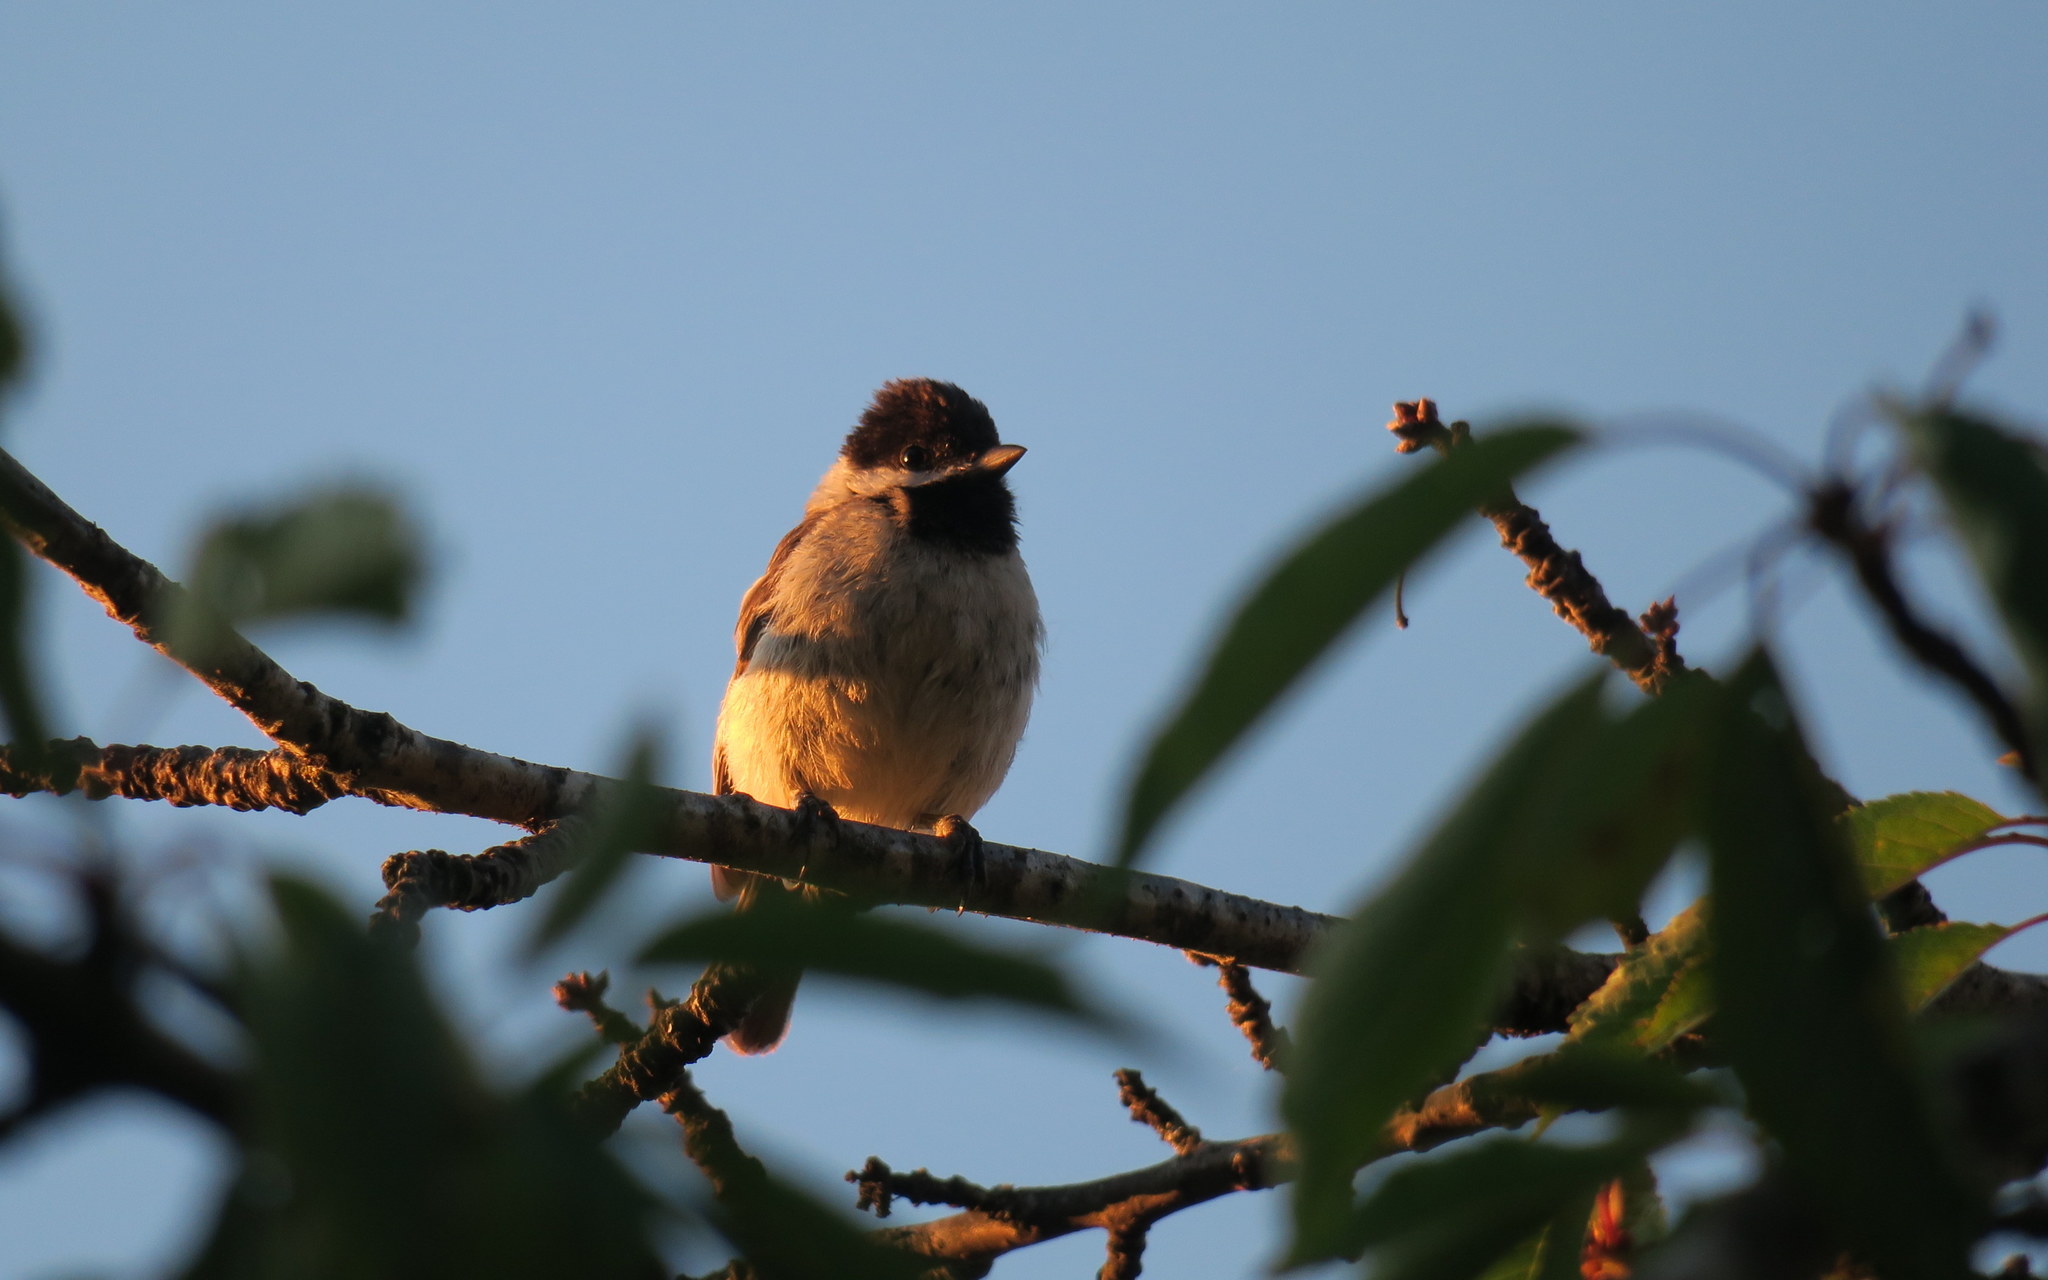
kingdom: Animalia
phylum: Chordata
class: Aves
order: Passeriformes
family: Paridae
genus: Poecile
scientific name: Poecile lugubris
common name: Sombre tit
